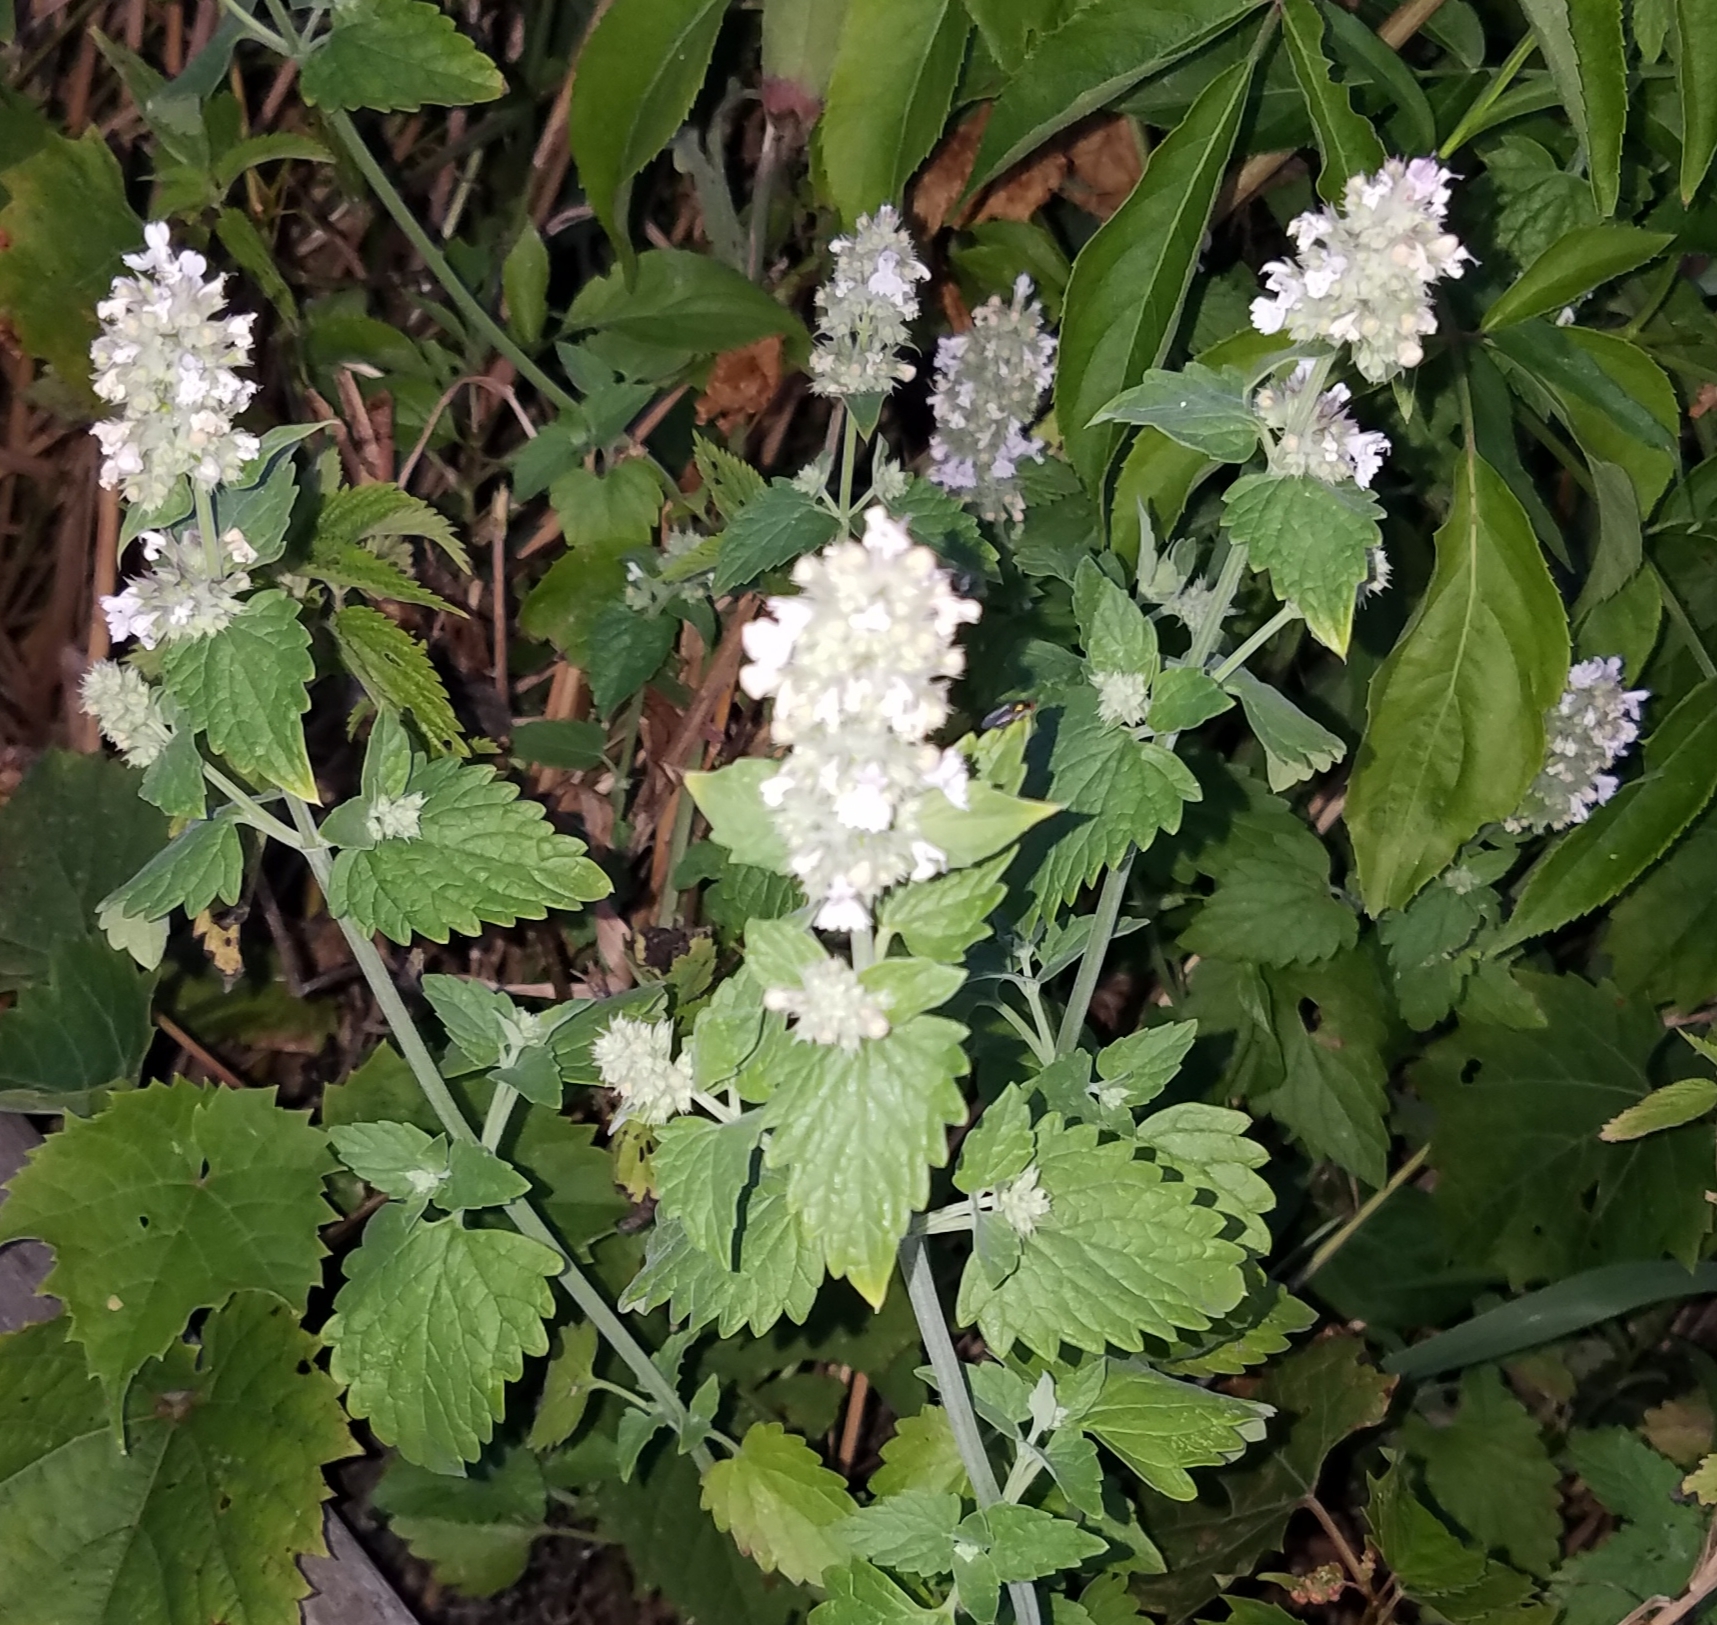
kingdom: Plantae
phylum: Tracheophyta
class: Magnoliopsida
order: Lamiales
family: Lamiaceae
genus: Nepeta
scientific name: Nepeta cataria
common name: Catnip
